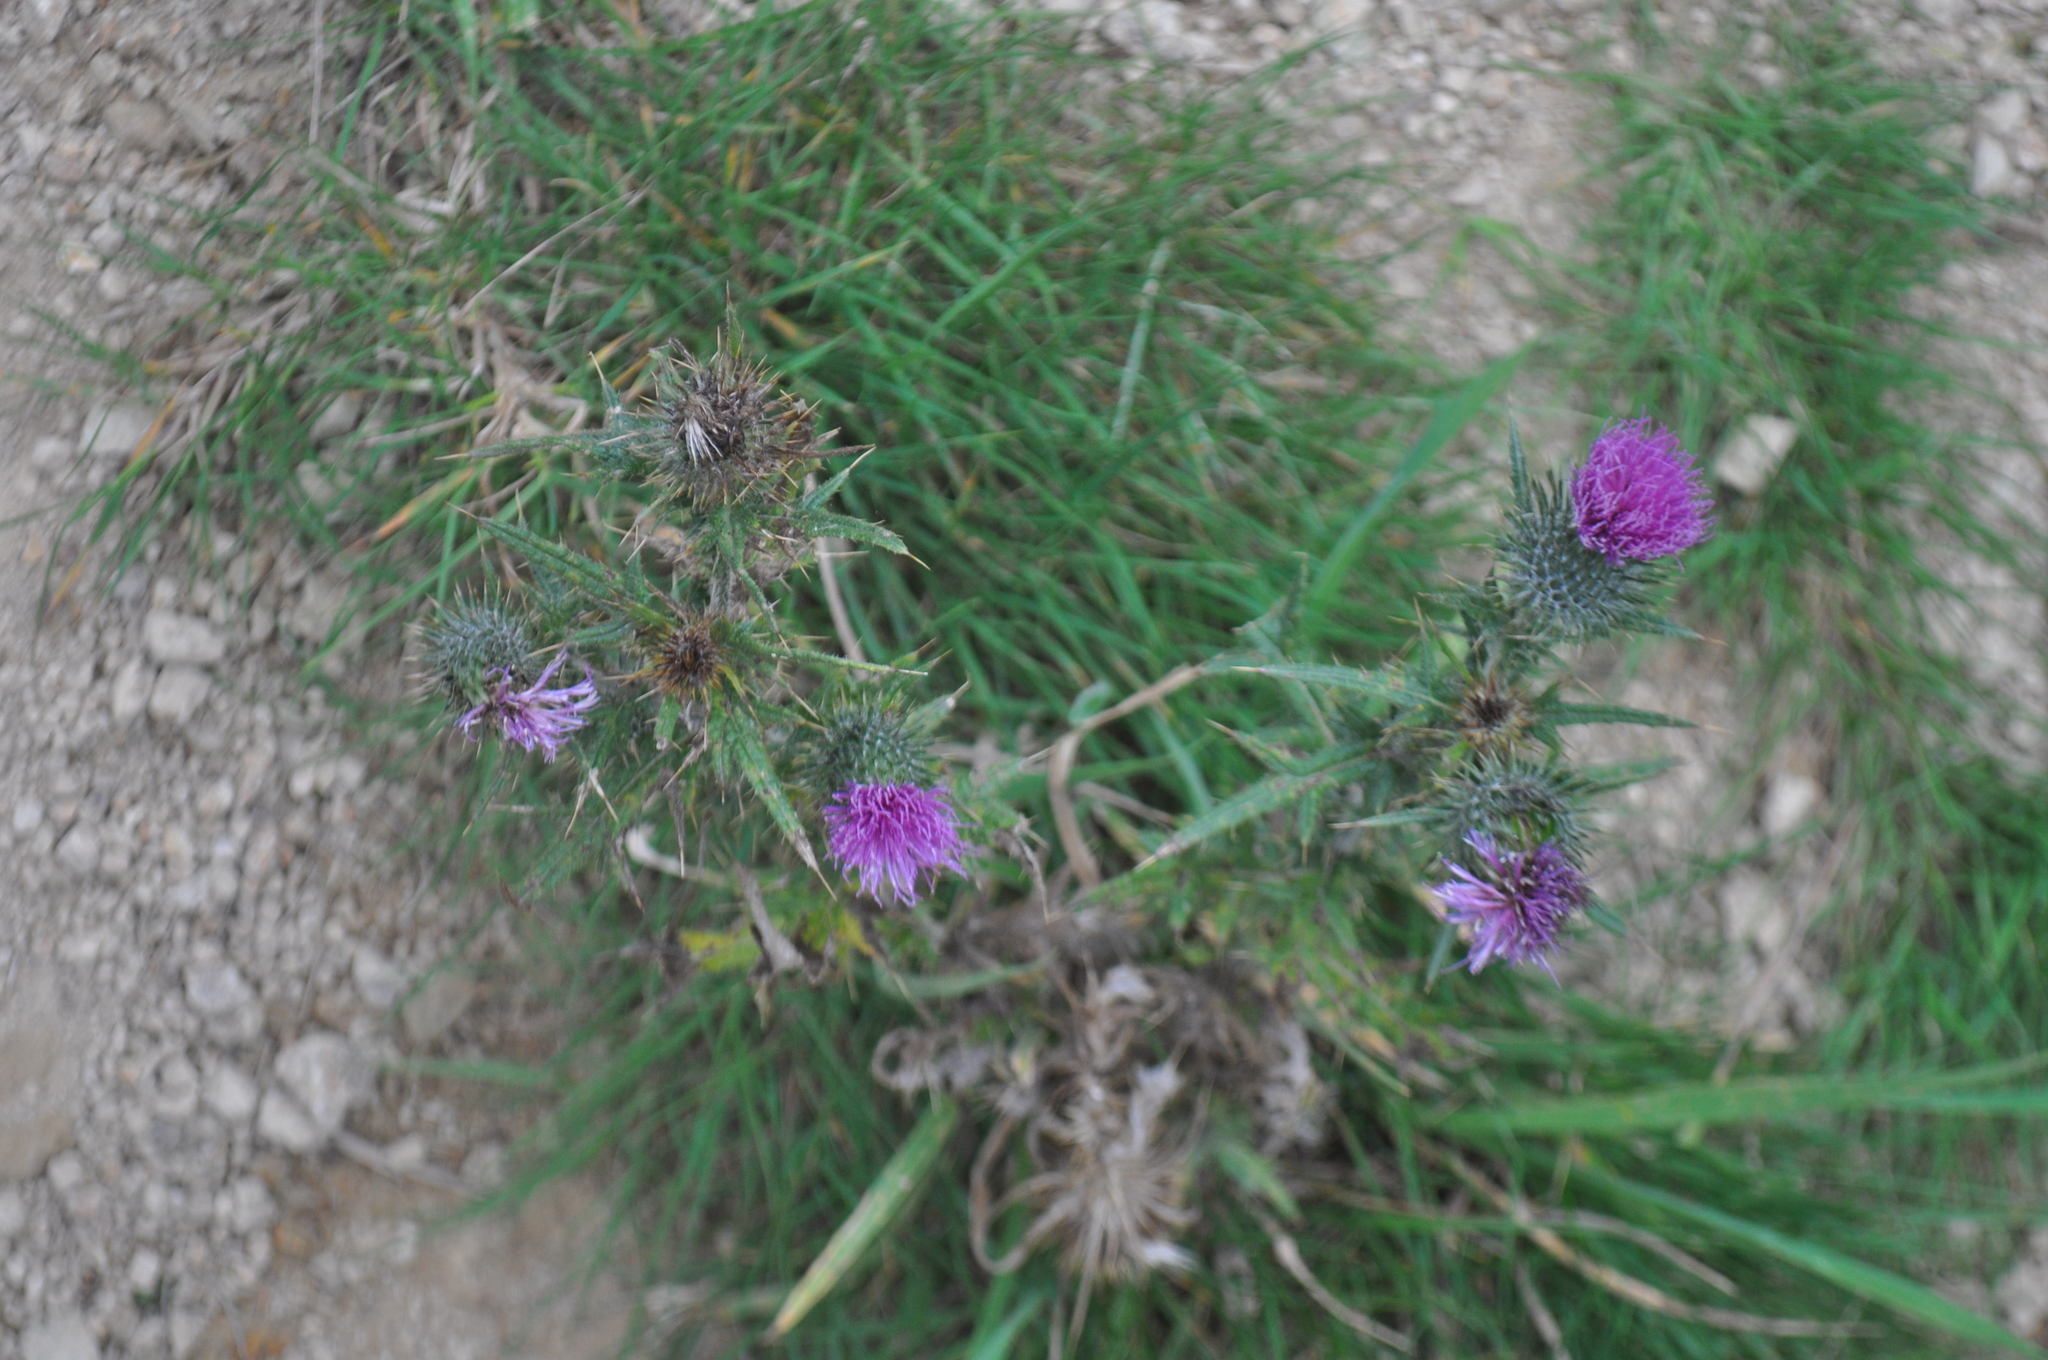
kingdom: Plantae
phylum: Tracheophyta
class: Magnoliopsida
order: Asterales
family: Asteraceae
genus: Cirsium
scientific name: Cirsium vulgare
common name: Bull thistle
